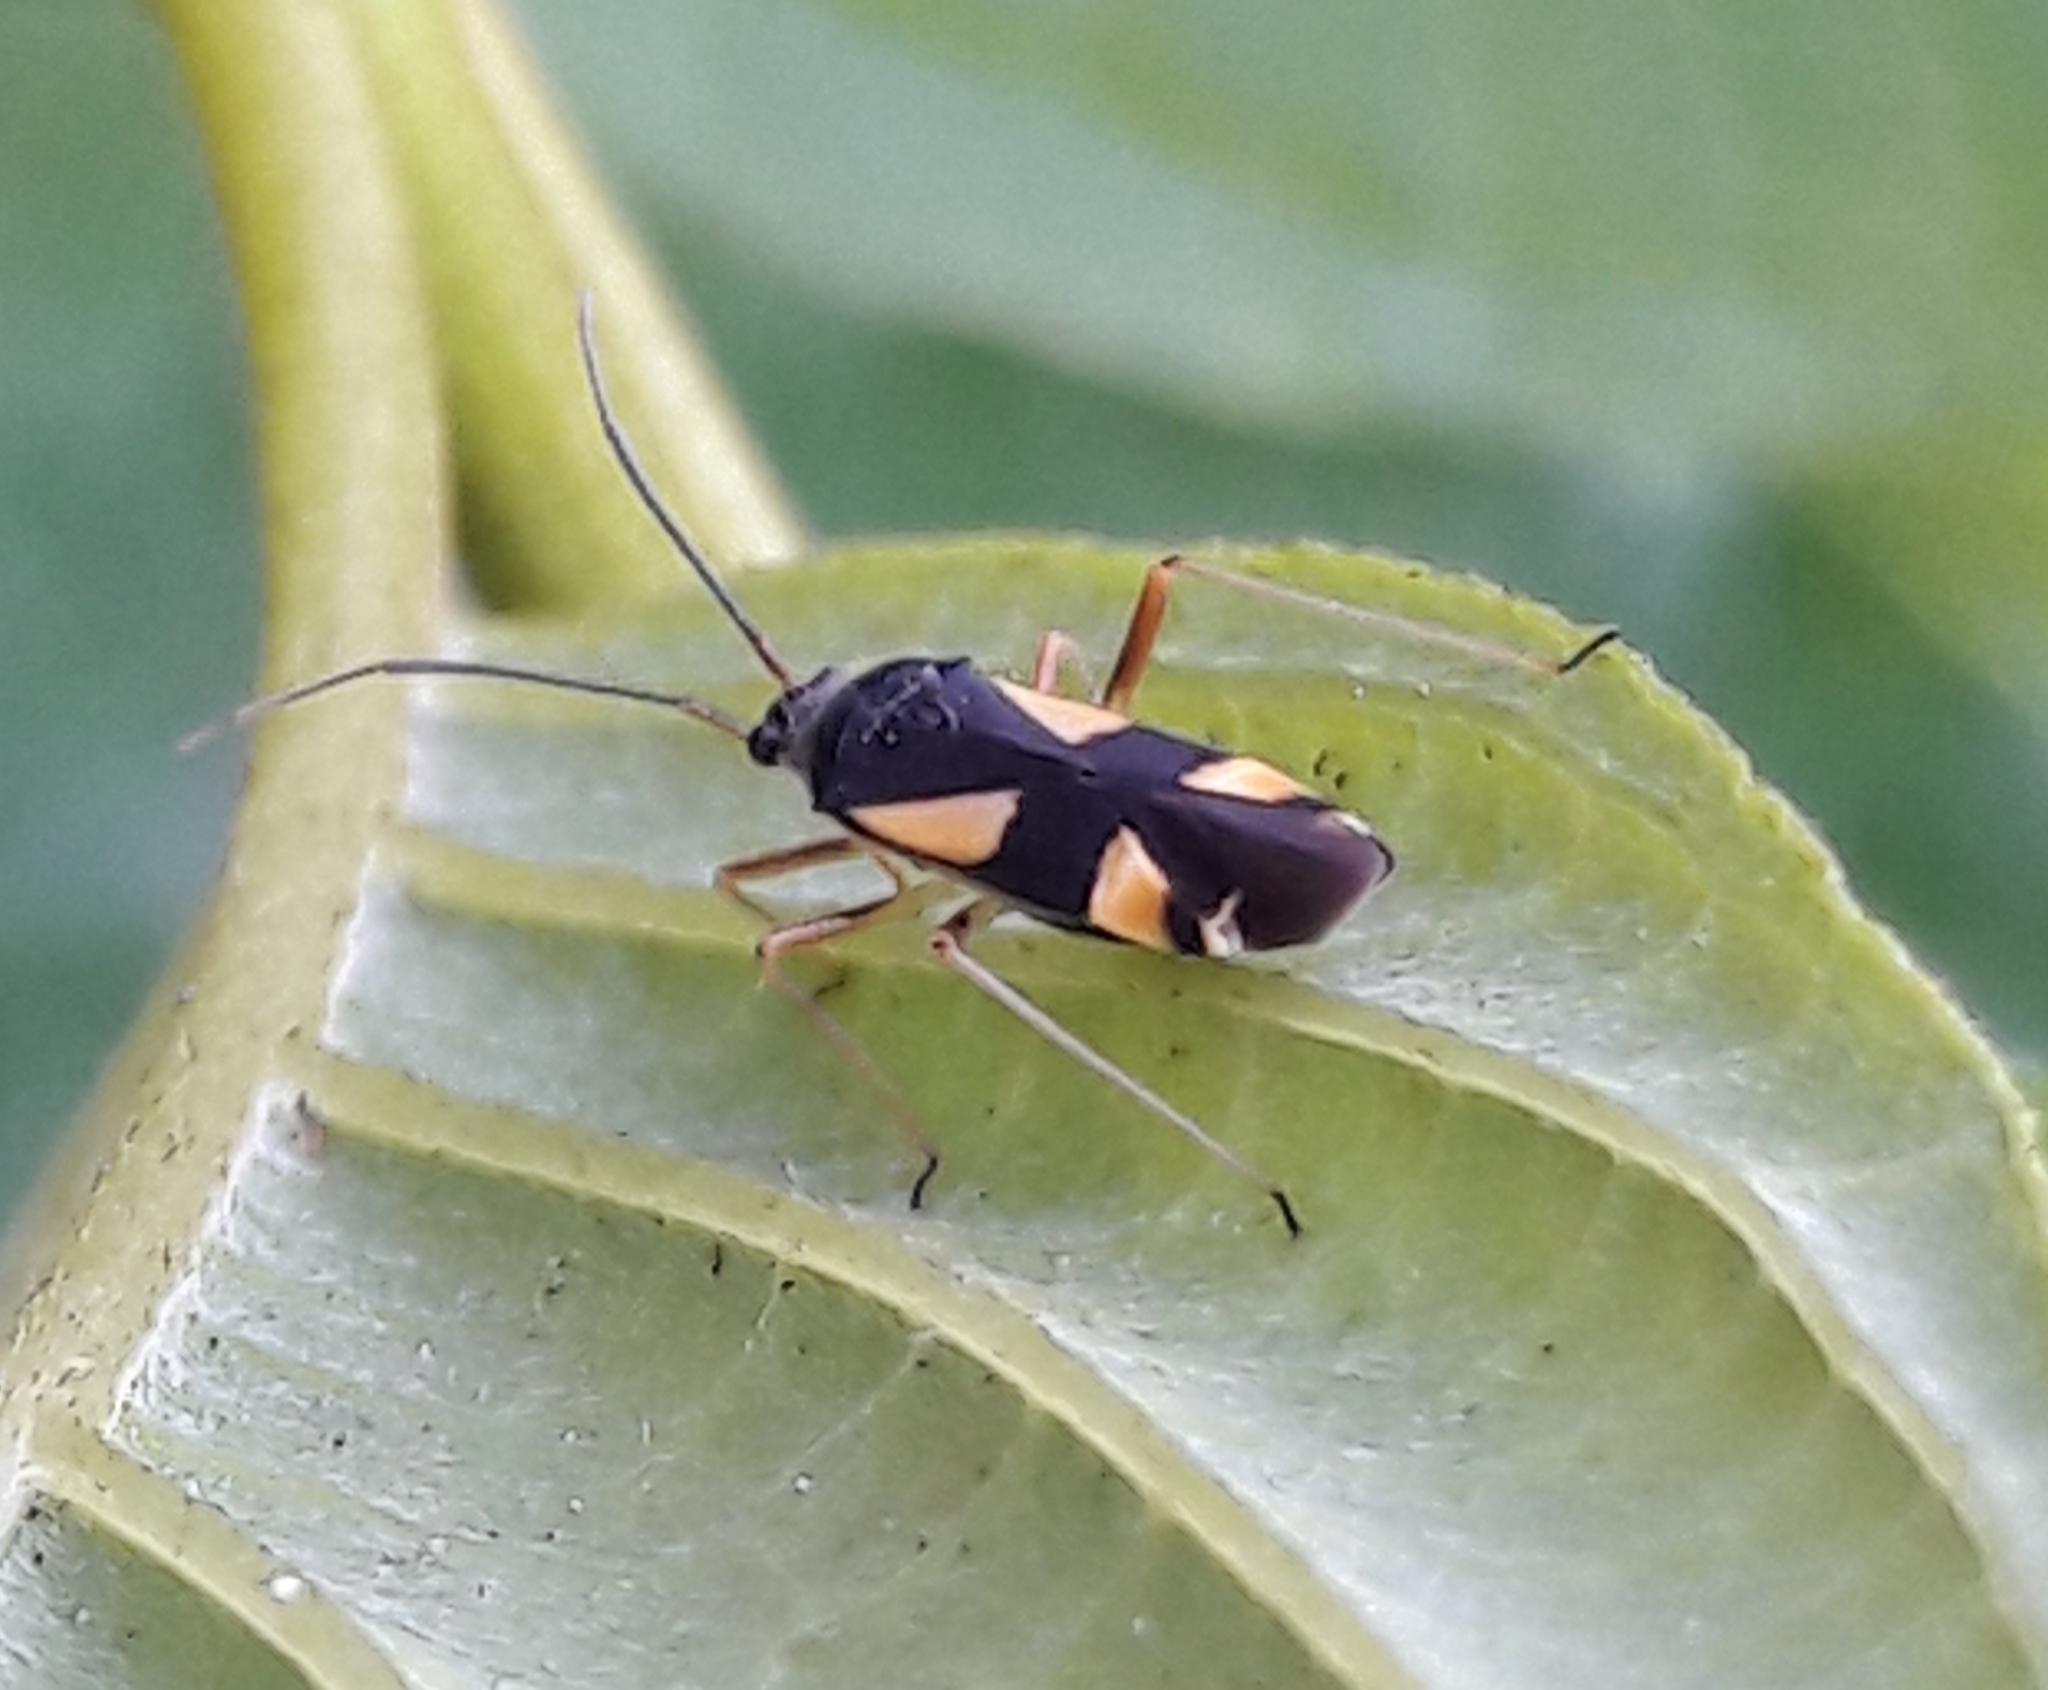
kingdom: Animalia
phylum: Arthropoda
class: Insecta
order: Hemiptera
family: Miridae
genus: Dryophilocoris
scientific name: Dryophilocoris flavoquadrimaculatus
